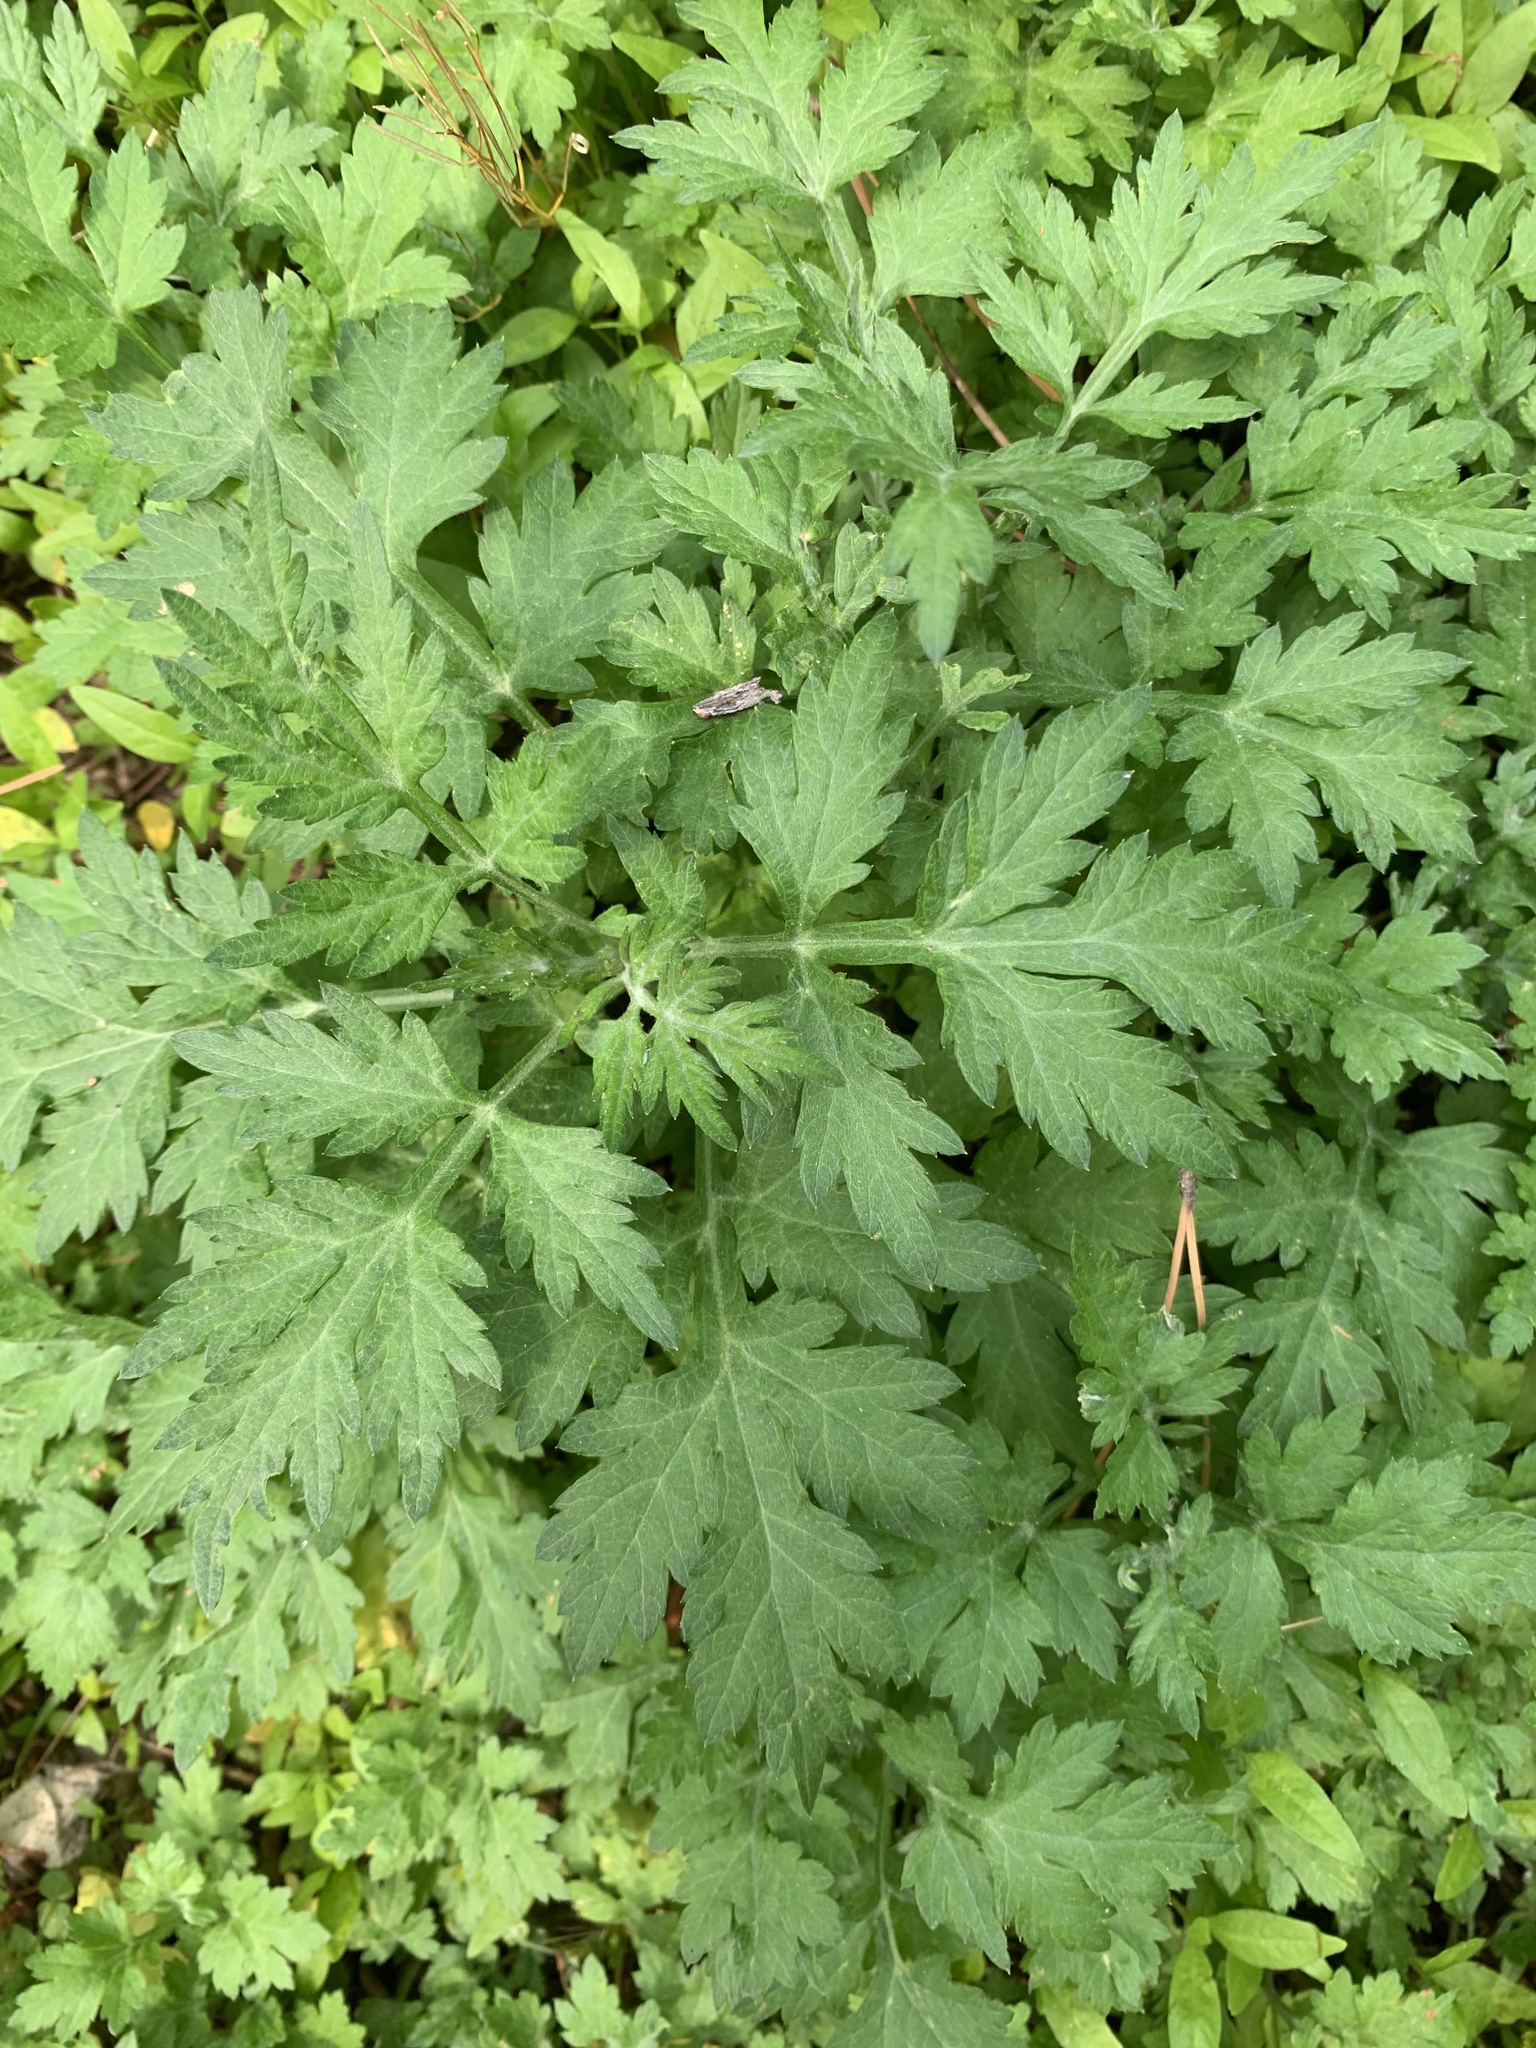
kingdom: Plantae
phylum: Tracheophyta
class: Magnoliopsida
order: Asterales
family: Asteraceae
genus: Artemisia
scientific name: Artemisia vulgaris
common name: Mugwort
